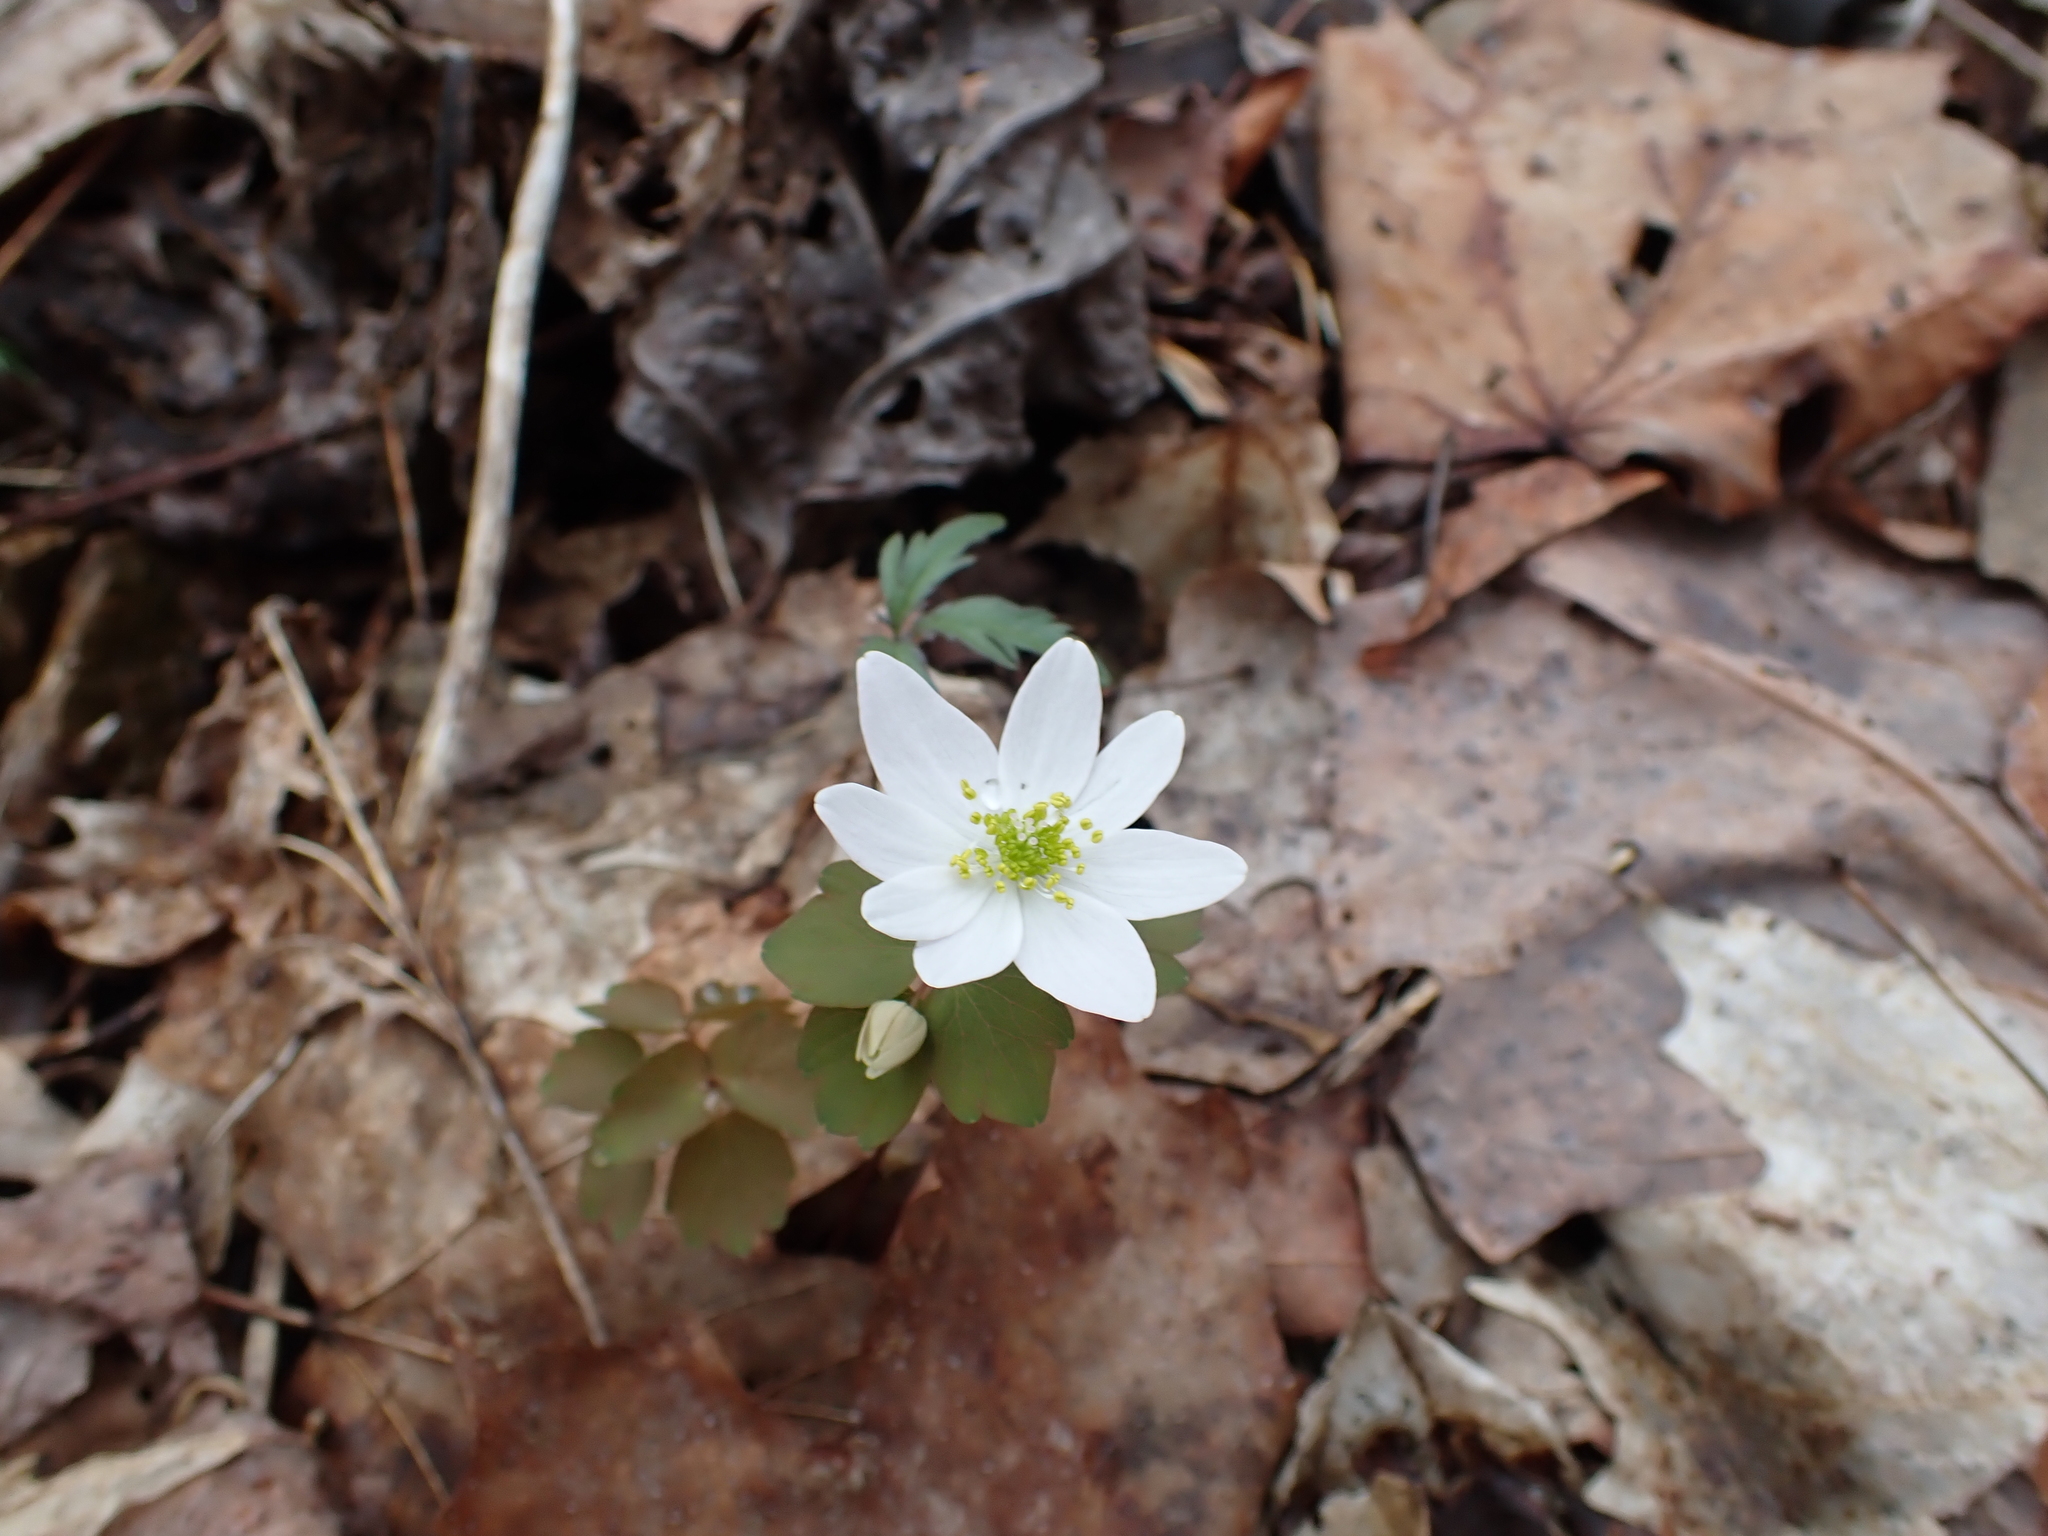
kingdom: Plantae
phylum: Tracheophyta
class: Magnoliopsida
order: Ranunculales
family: Ranunculaceae
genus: Thalictrum
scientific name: Thalictrum thalictroides
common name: Rue-anemone
